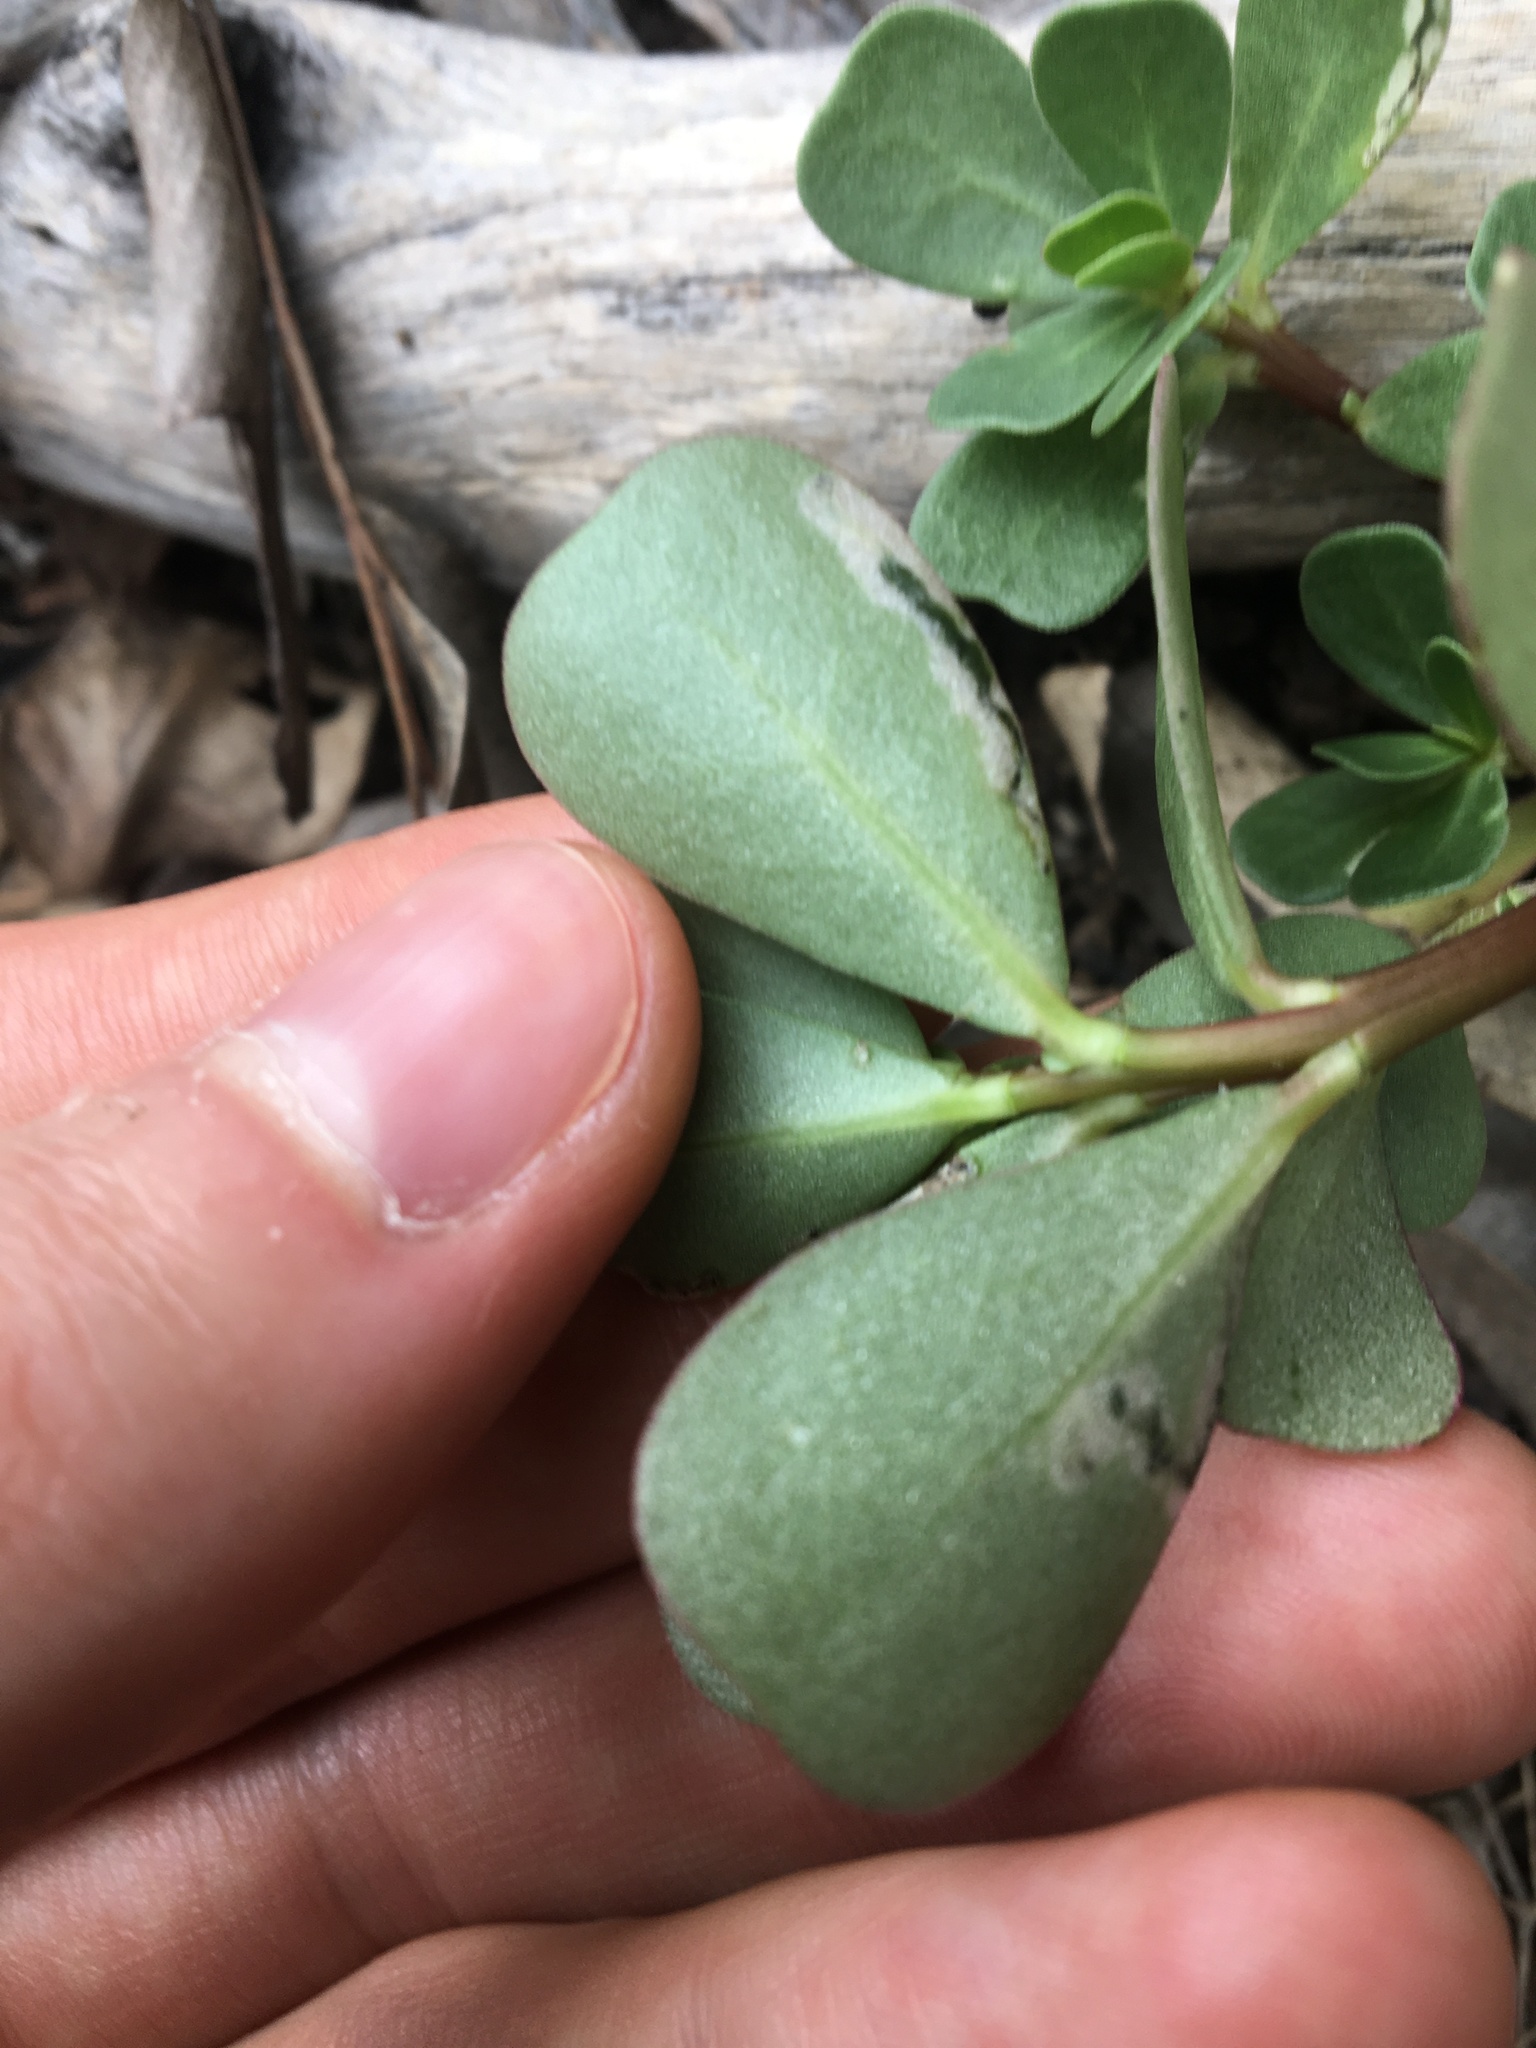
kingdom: Plantae
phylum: Tracheophyta
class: Magnoliopsida
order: Caryophyllales
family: Portulacaceae
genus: Portulaca
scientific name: Portulaca oleracea
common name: Common purslane
